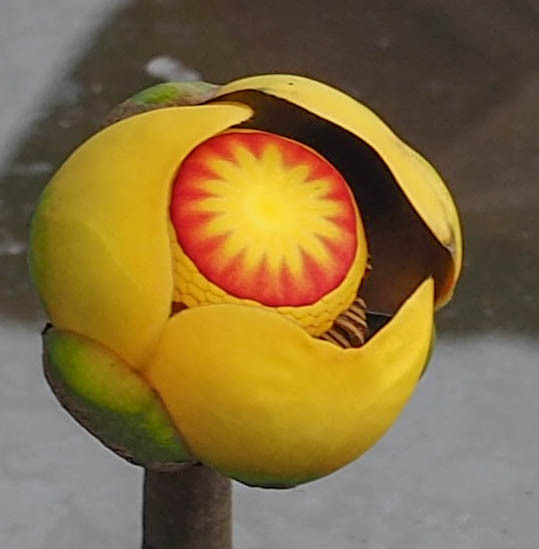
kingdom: Plantae
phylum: Tracheophyta
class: Magnoliopsida
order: Nymphaeales
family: Nymphaeaceae
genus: Nuphar
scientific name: Nuphar advena
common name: Spatter-dock
